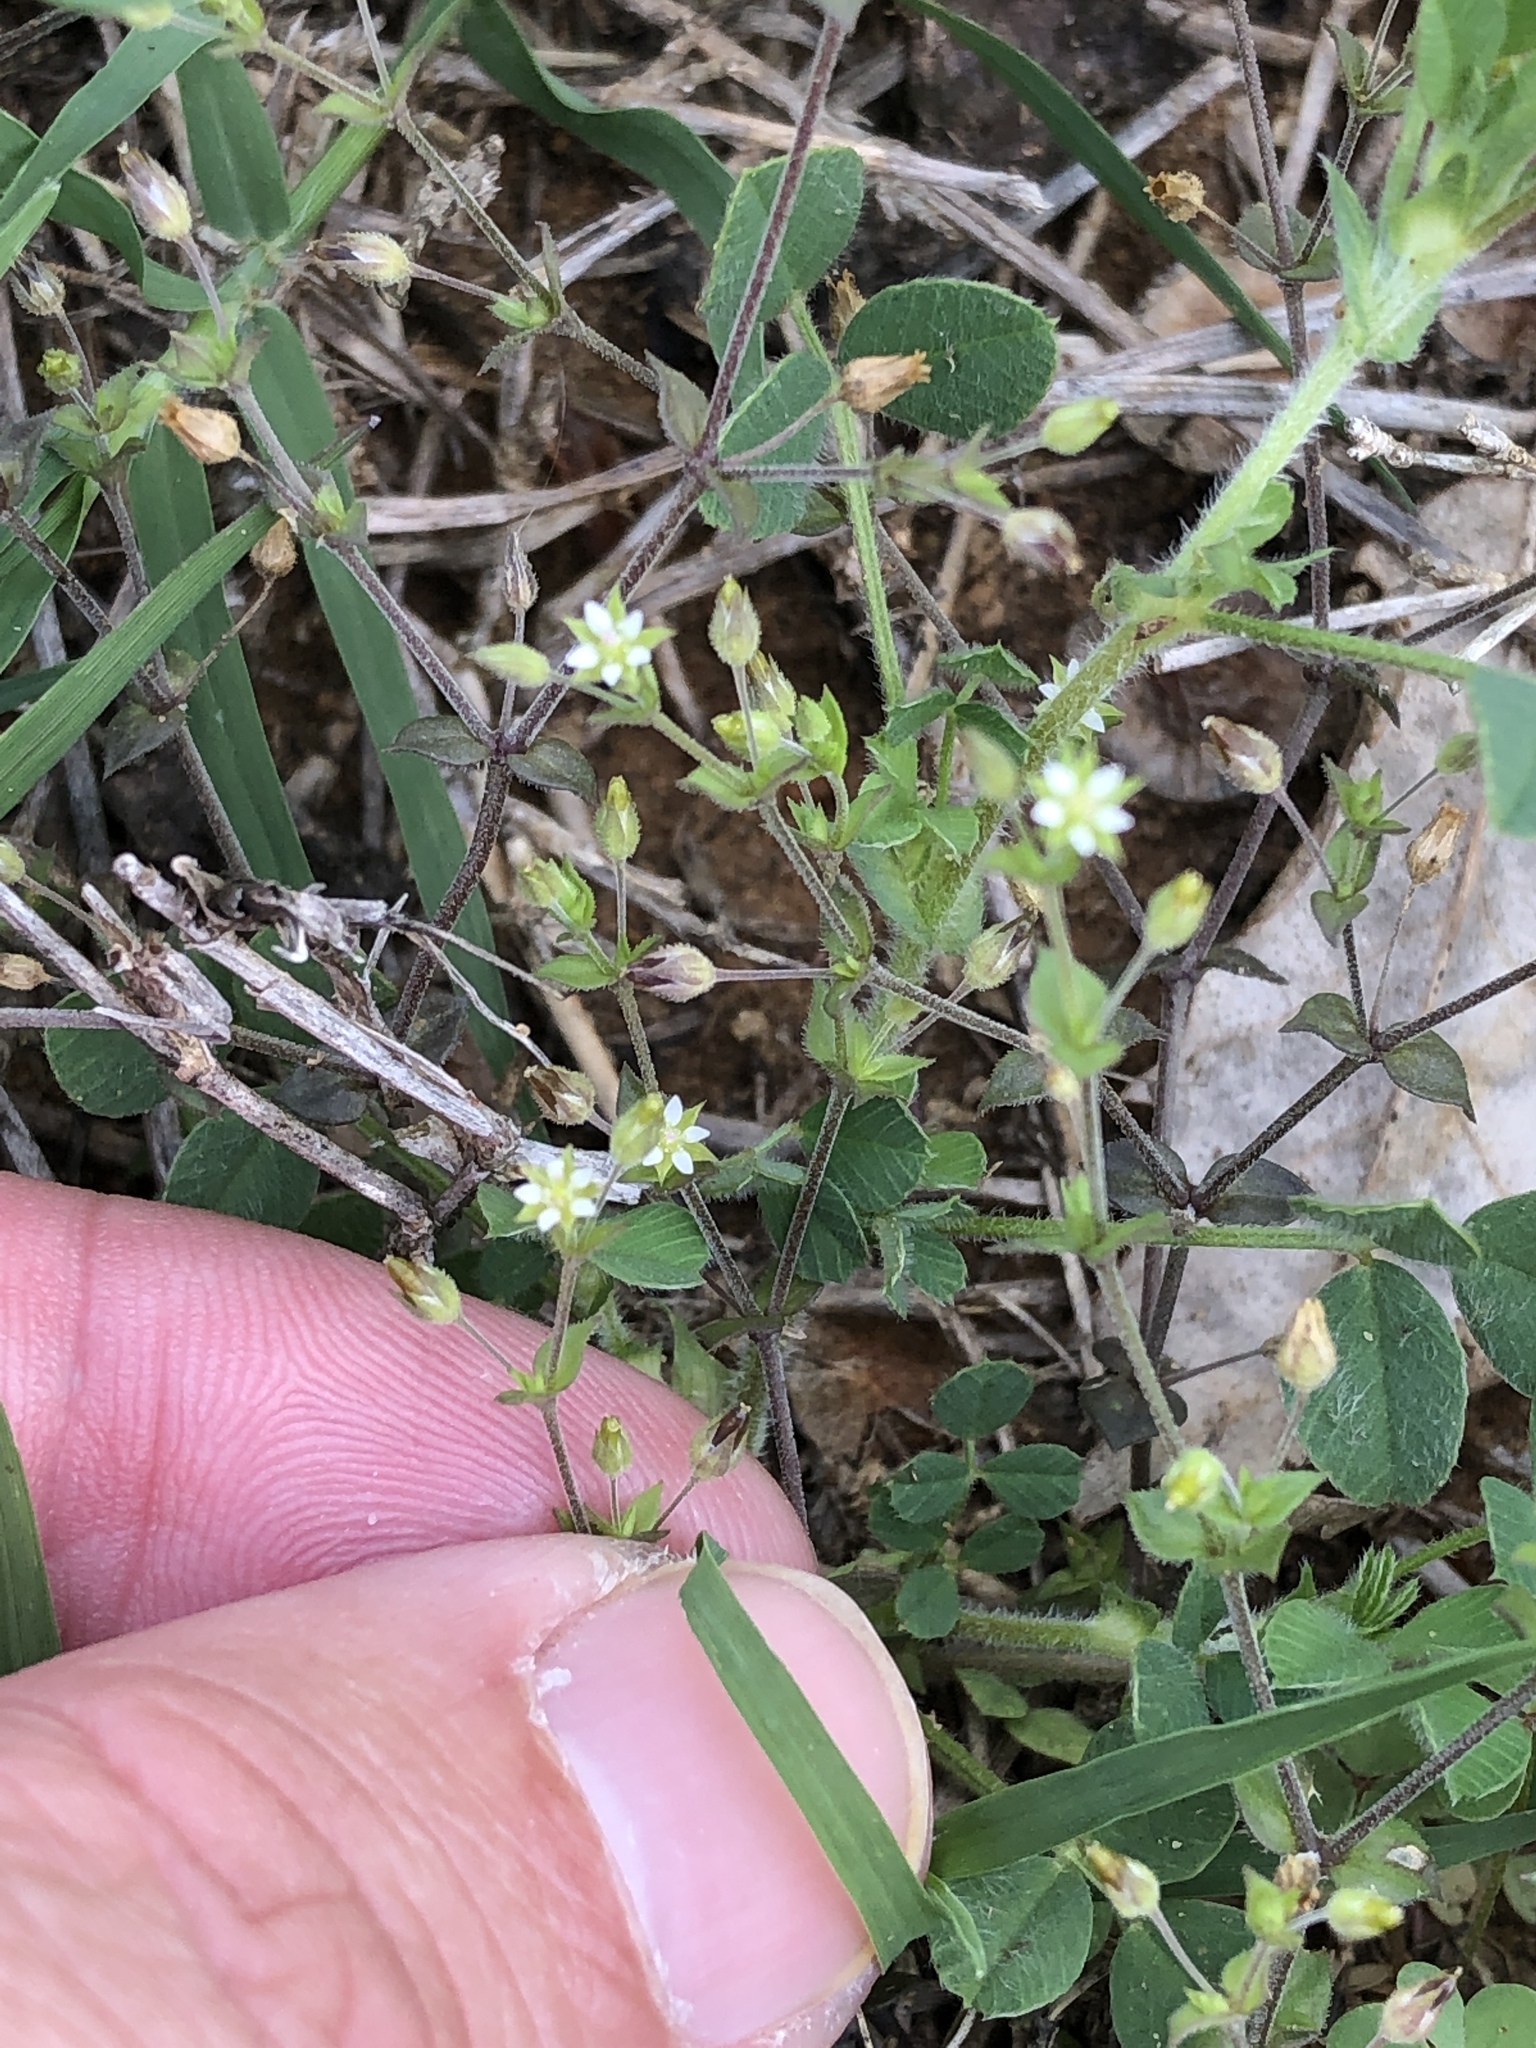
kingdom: Plantae
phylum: Tracheophyta
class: Magnoliopsida
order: Caryophyllales
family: Caryophyllaceae
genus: Arenaria
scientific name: Arenaria serpyllifolia
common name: Thyme-leaved sandwort
